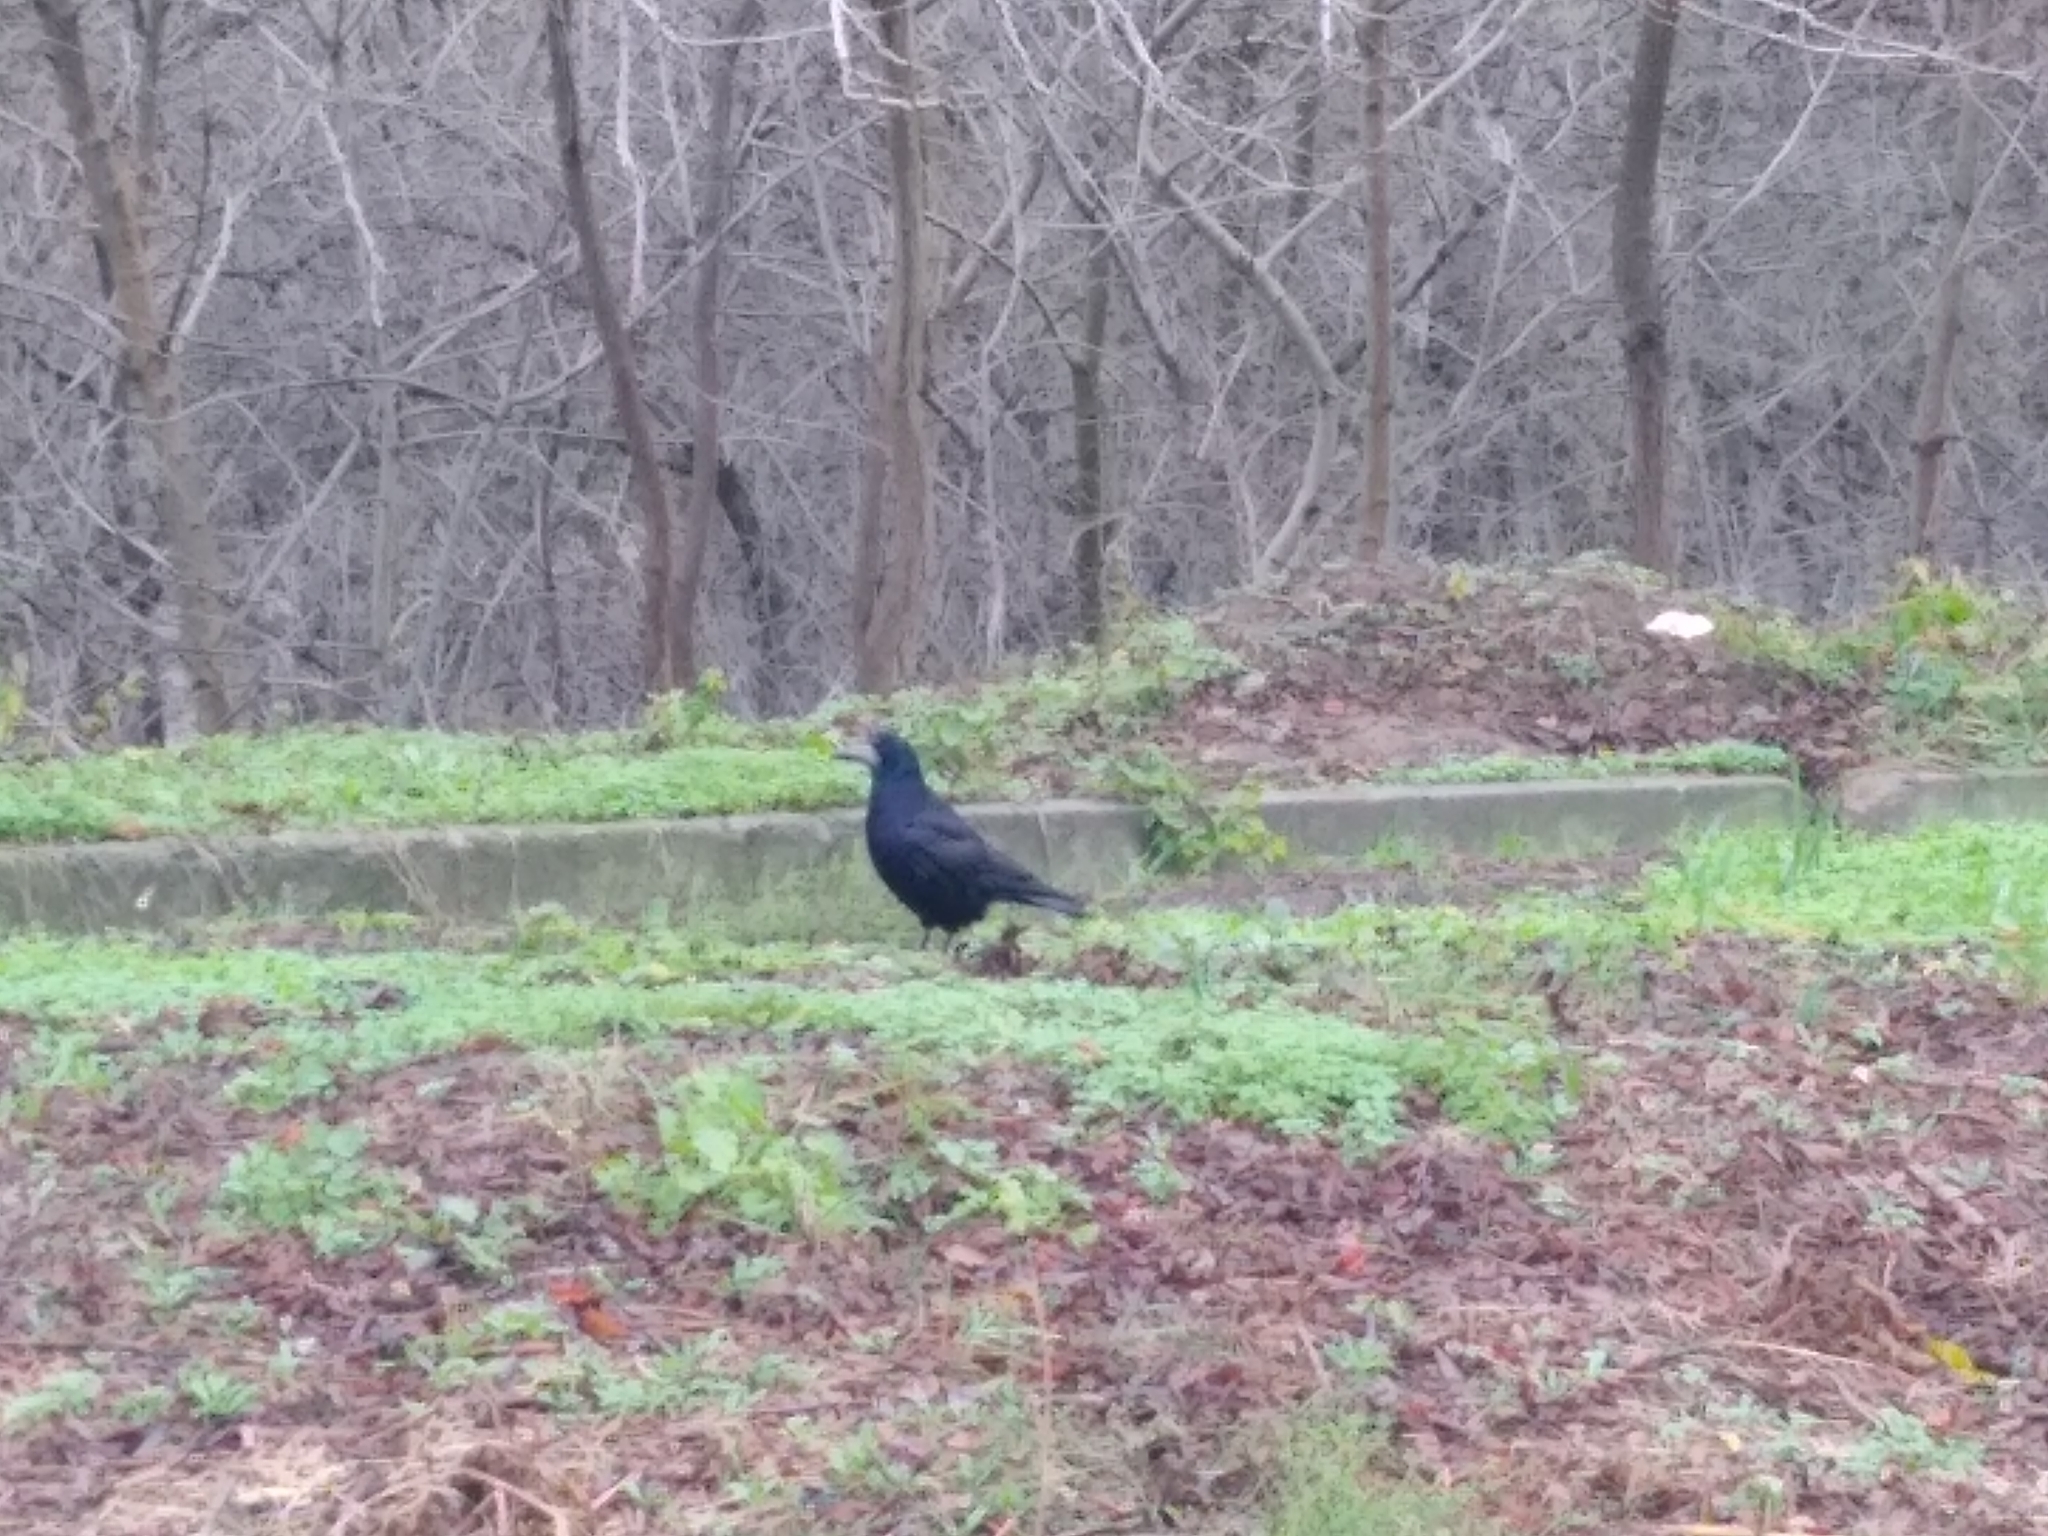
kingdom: Animalia
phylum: Chordata
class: Aves
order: Passeriformes
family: Corvidae
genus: Corvus
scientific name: Corvus frugilegus
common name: Rook
